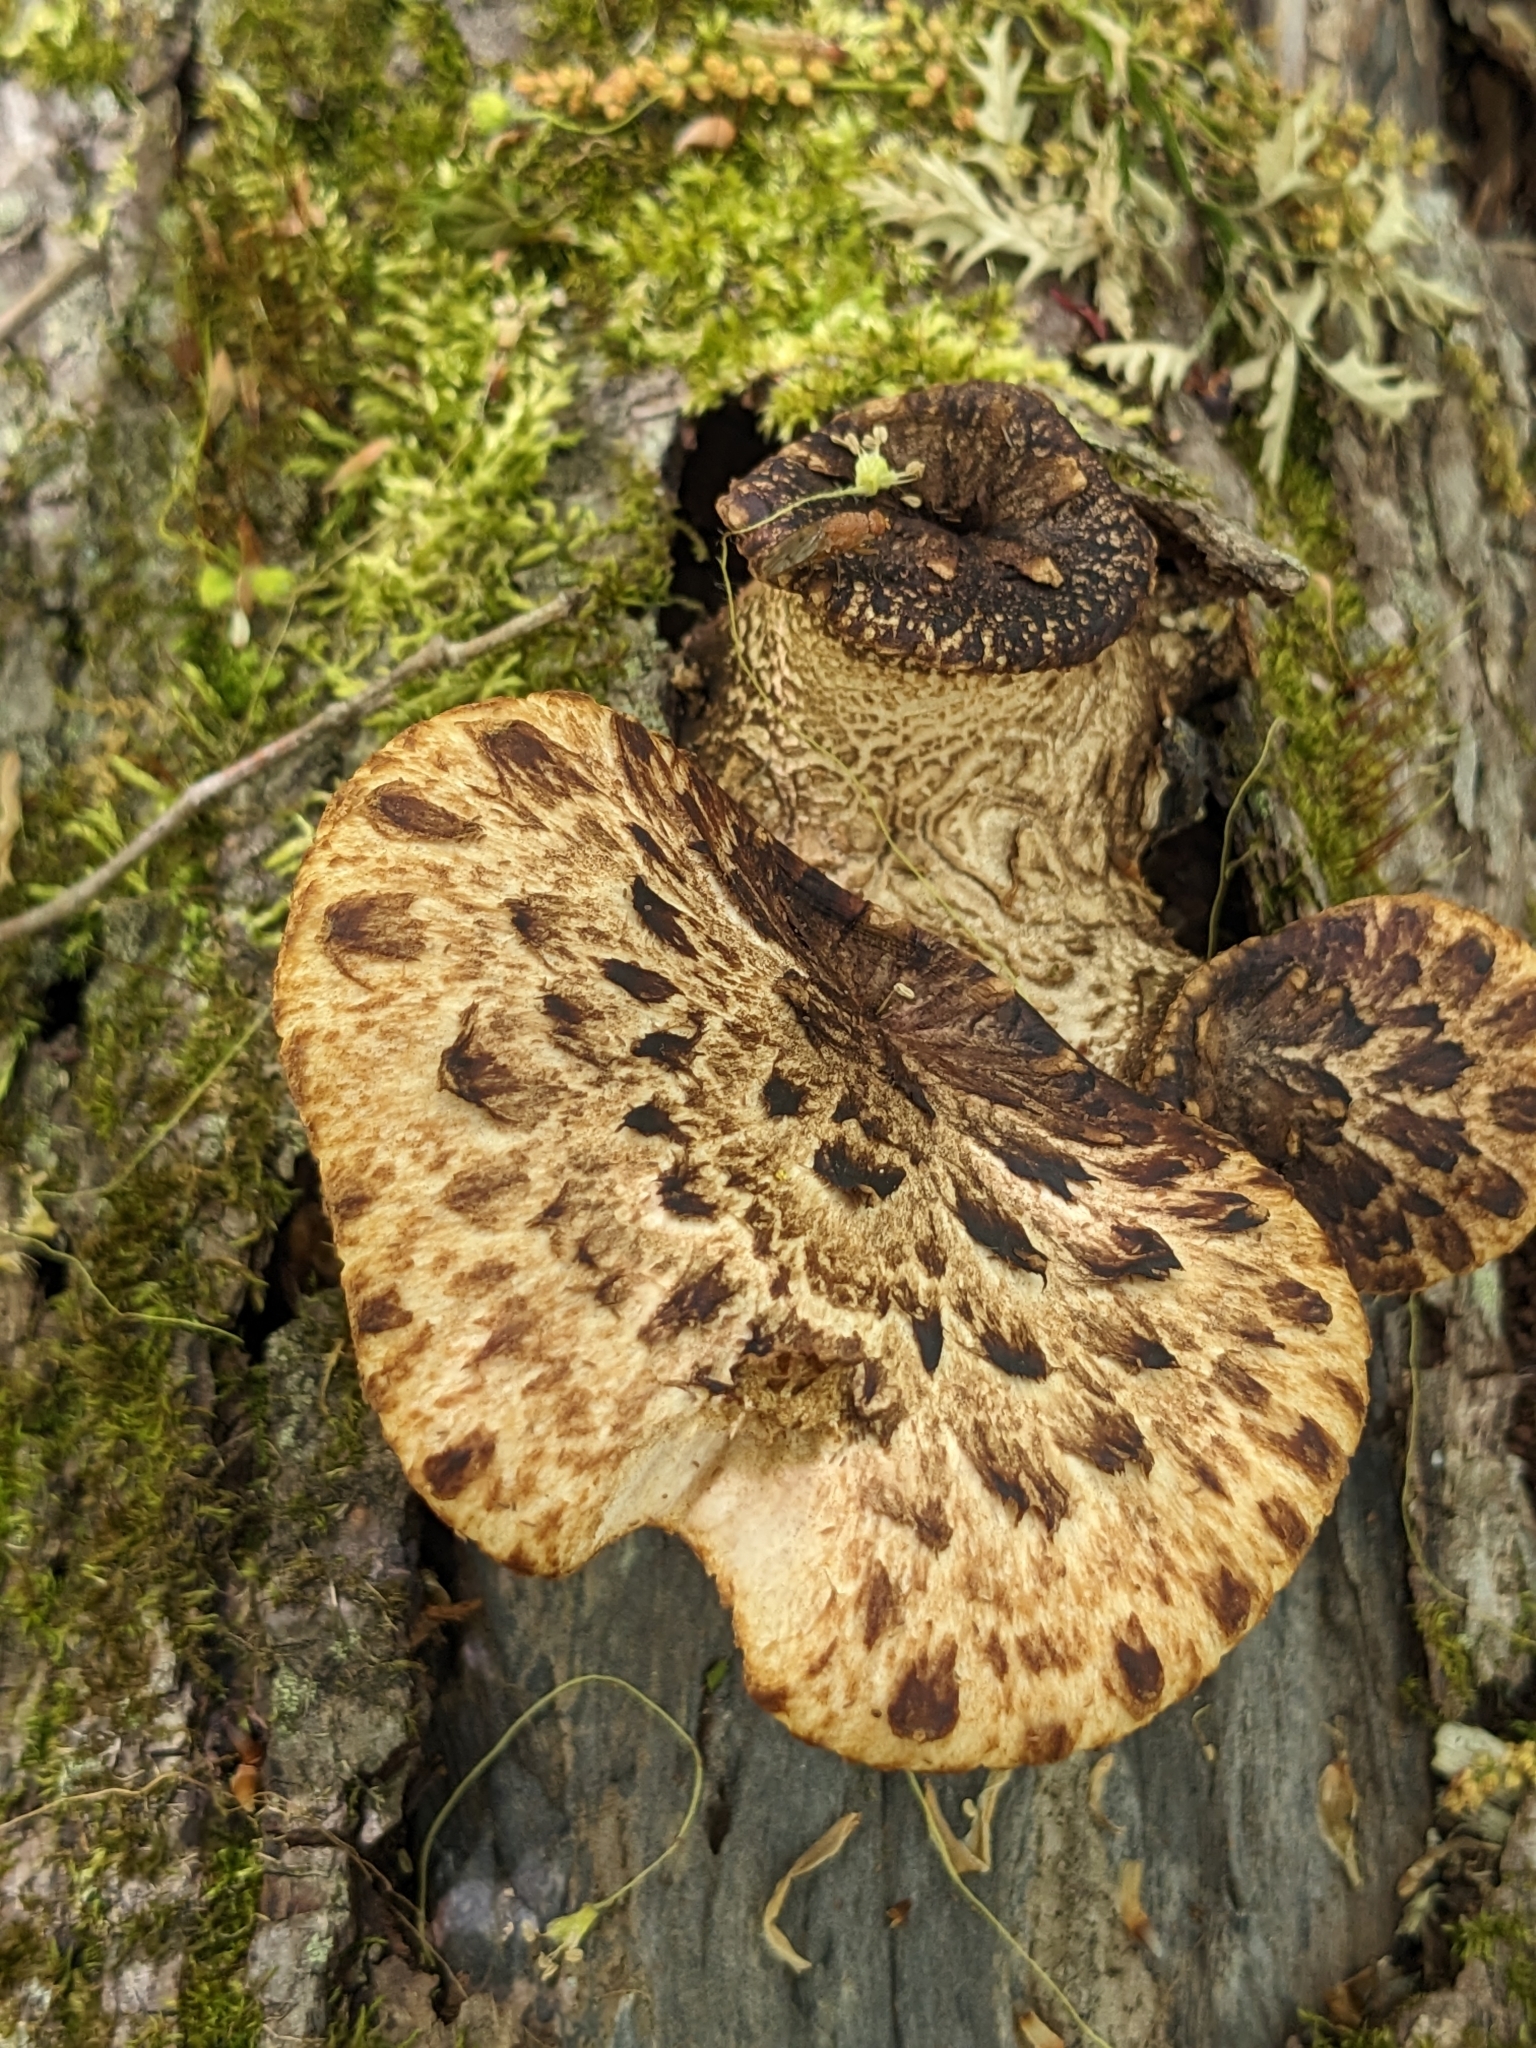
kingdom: Fungi
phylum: Basidiomycota
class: Agaricomycetes
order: Polyporales
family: Polyporaceae
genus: Cerioporus
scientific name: Cerioporus squamosus
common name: Dryad's saddle
